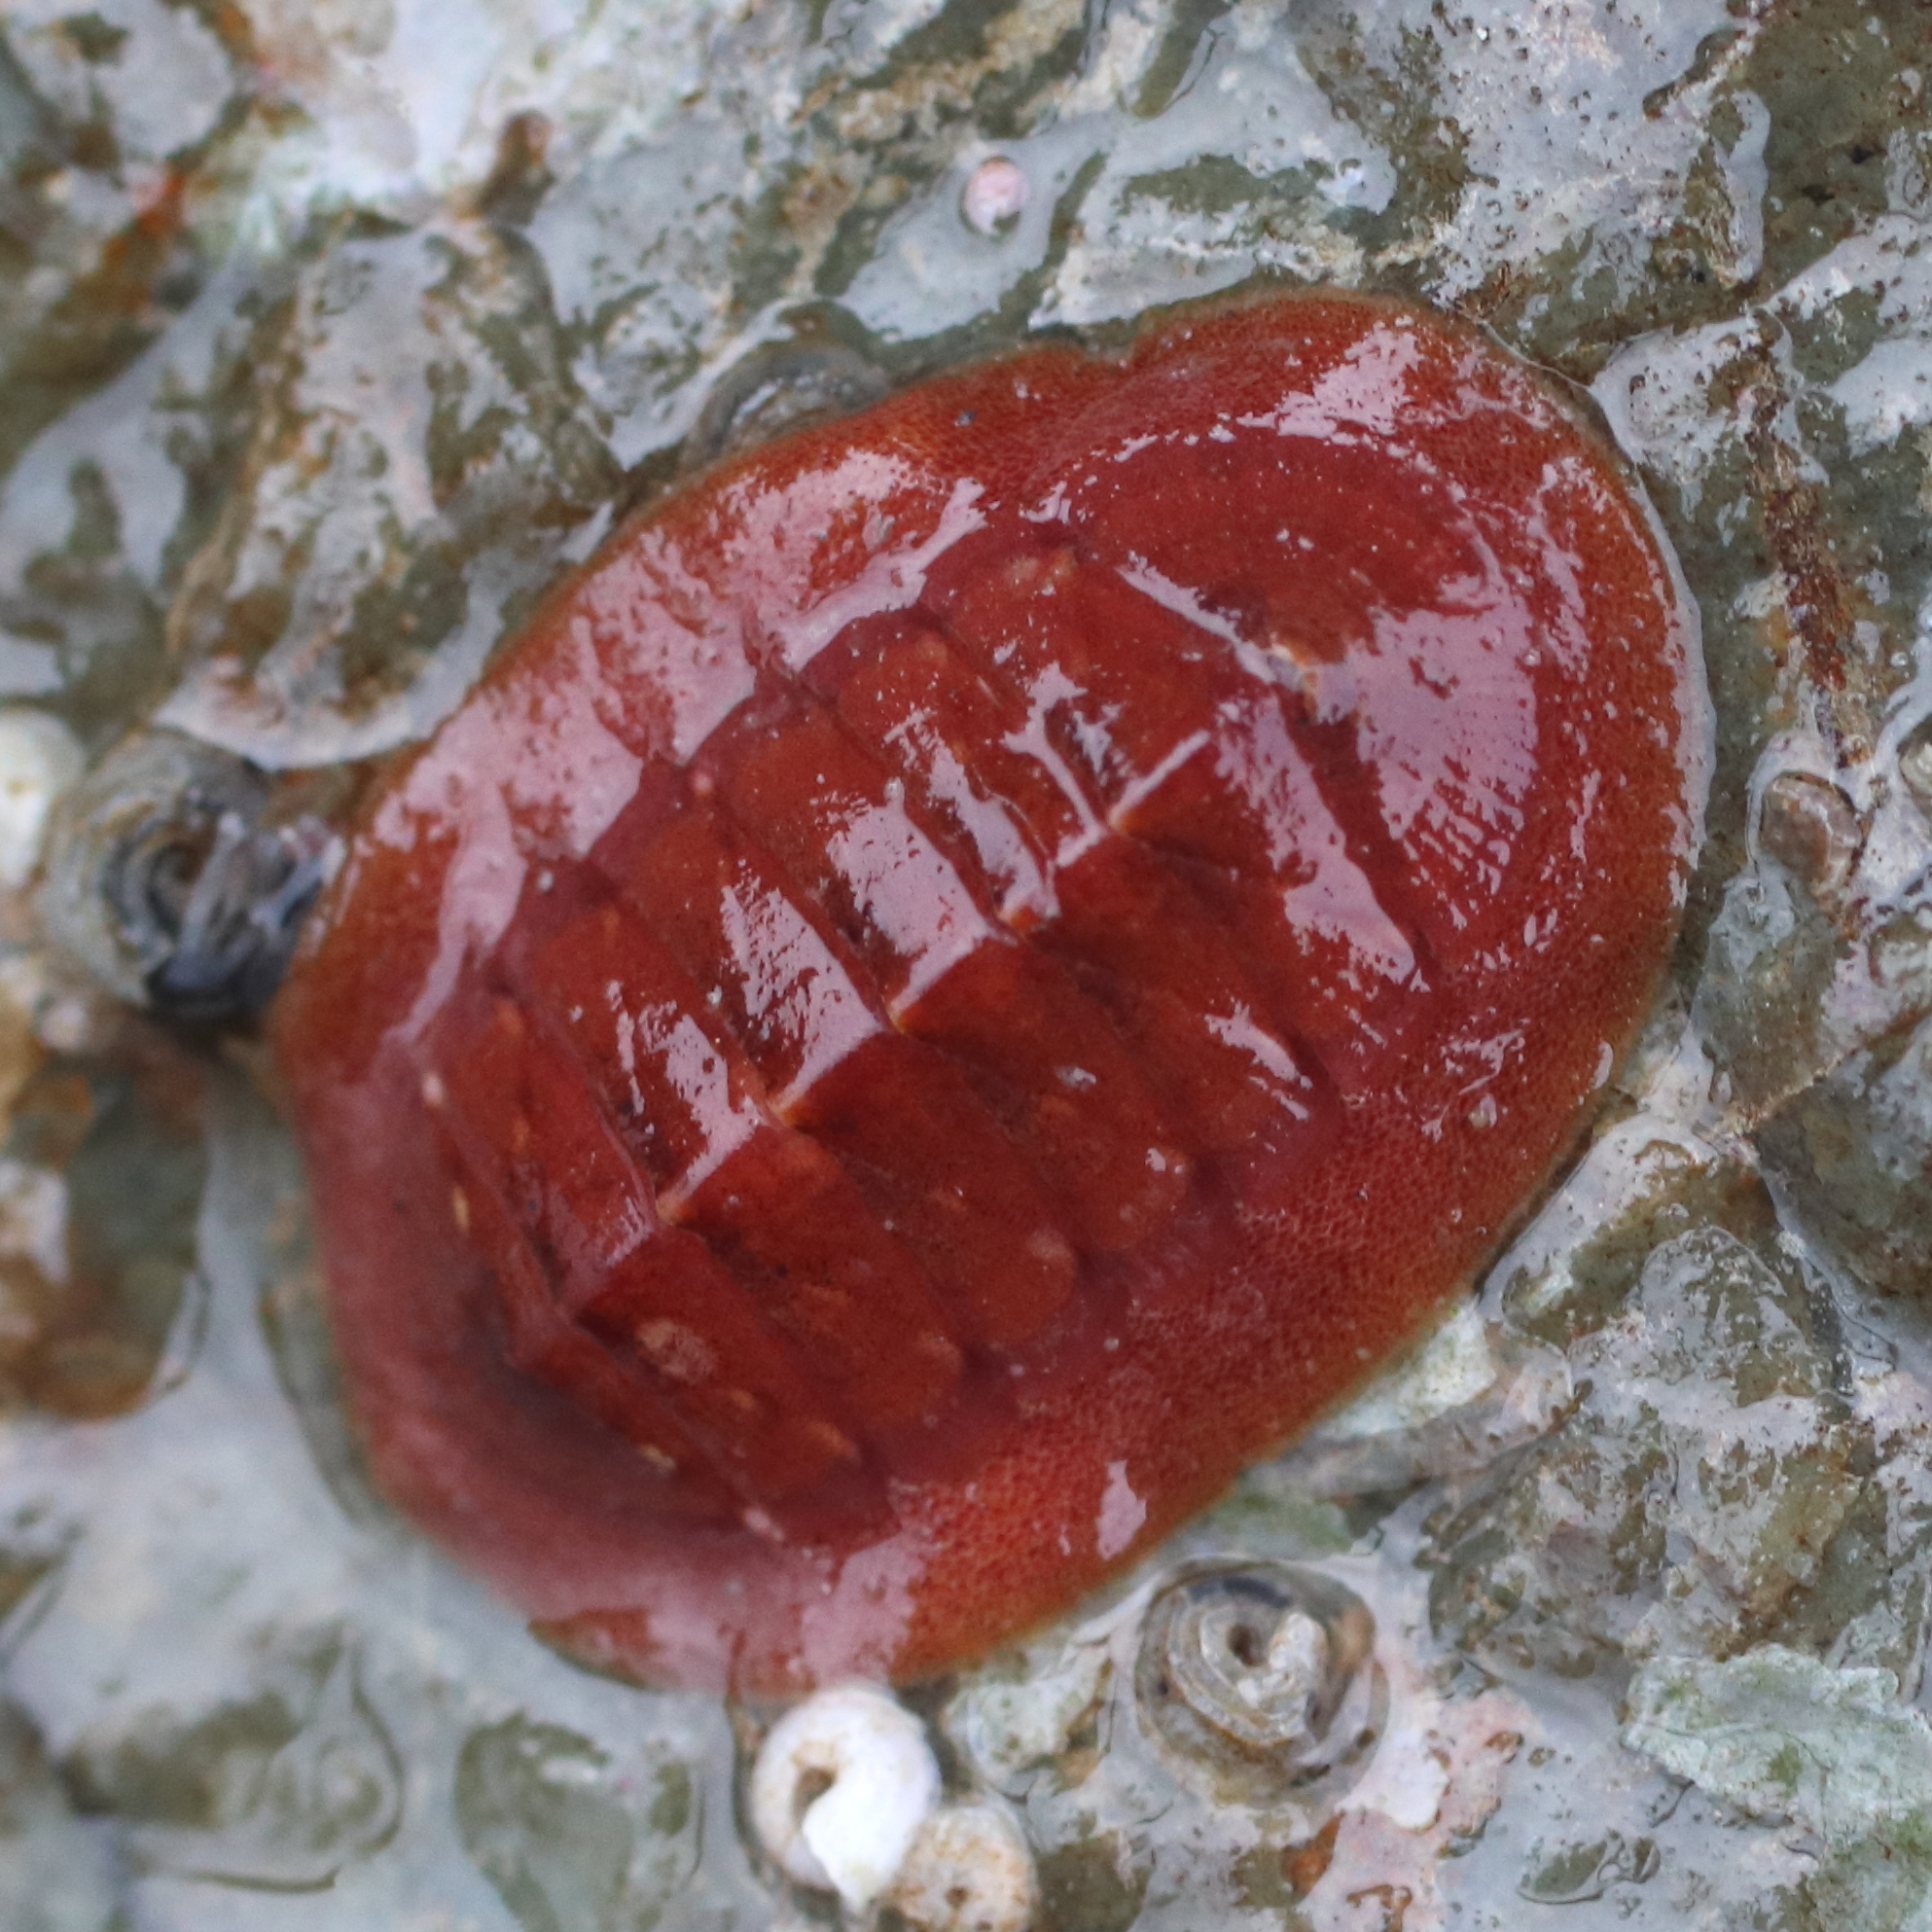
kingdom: Animalia
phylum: Mollusca
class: Polyplacophora
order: Chitonida
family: Ischnochitonidae
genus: Lepidozona
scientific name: Lepidozona interstincta
